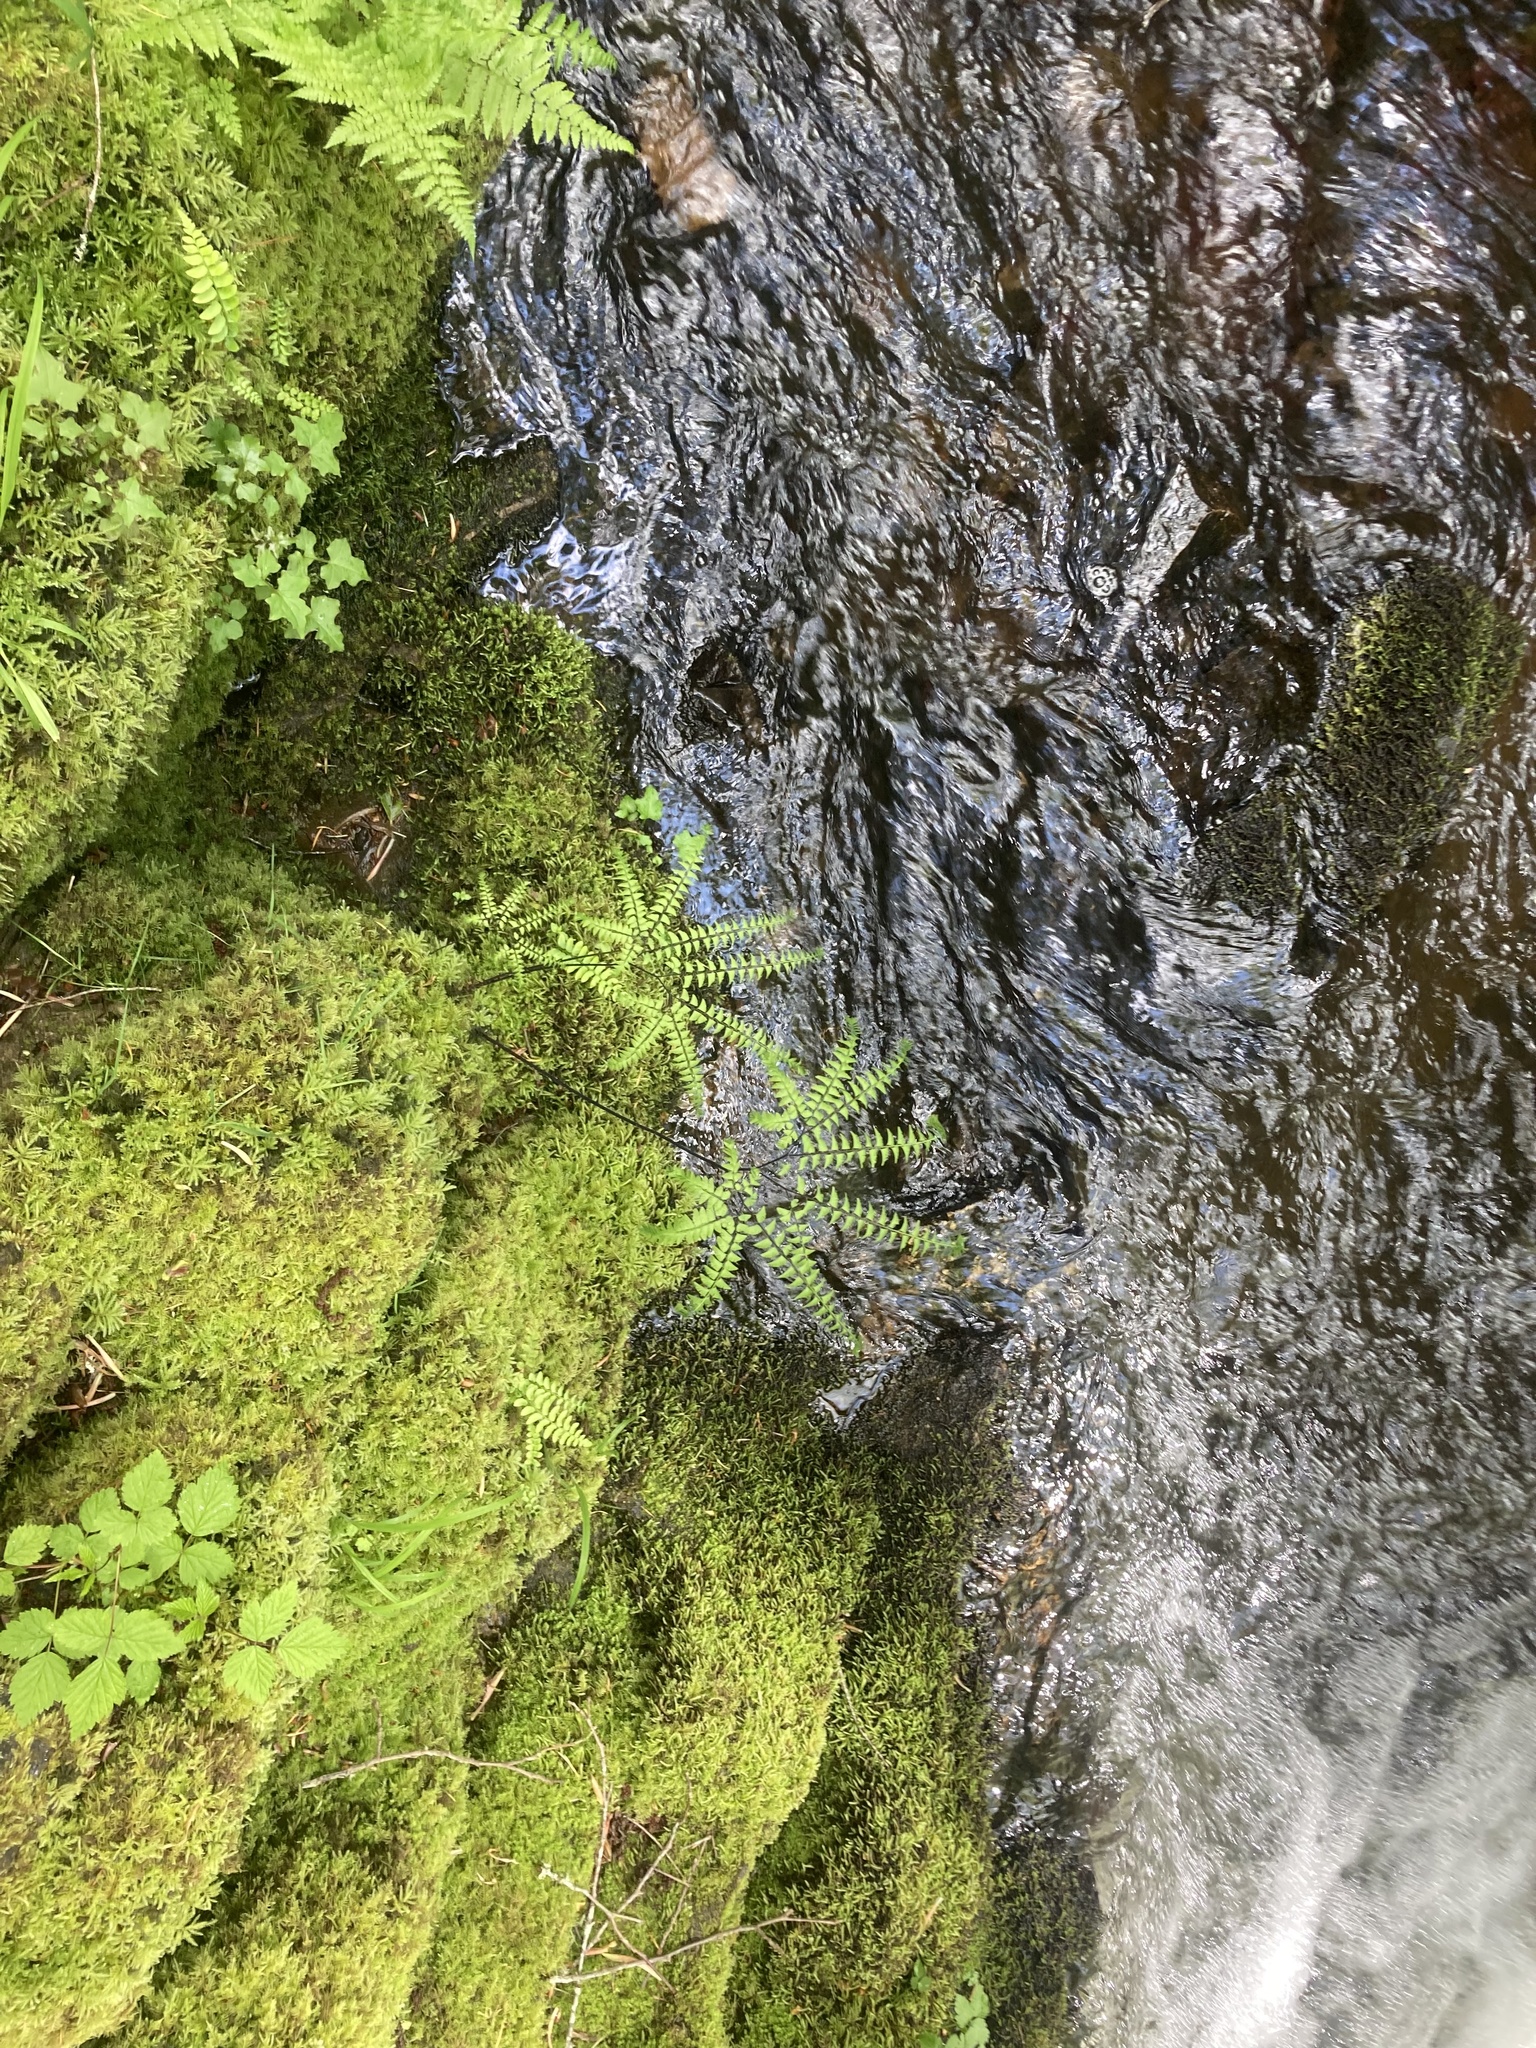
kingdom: Plantae
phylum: Tracheophyta
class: Polypodiopsida
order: Polypodiales
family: Pteridaceae
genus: Adiantum
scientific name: Adiantum aleuticum
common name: Aleutian maidenhair fern
